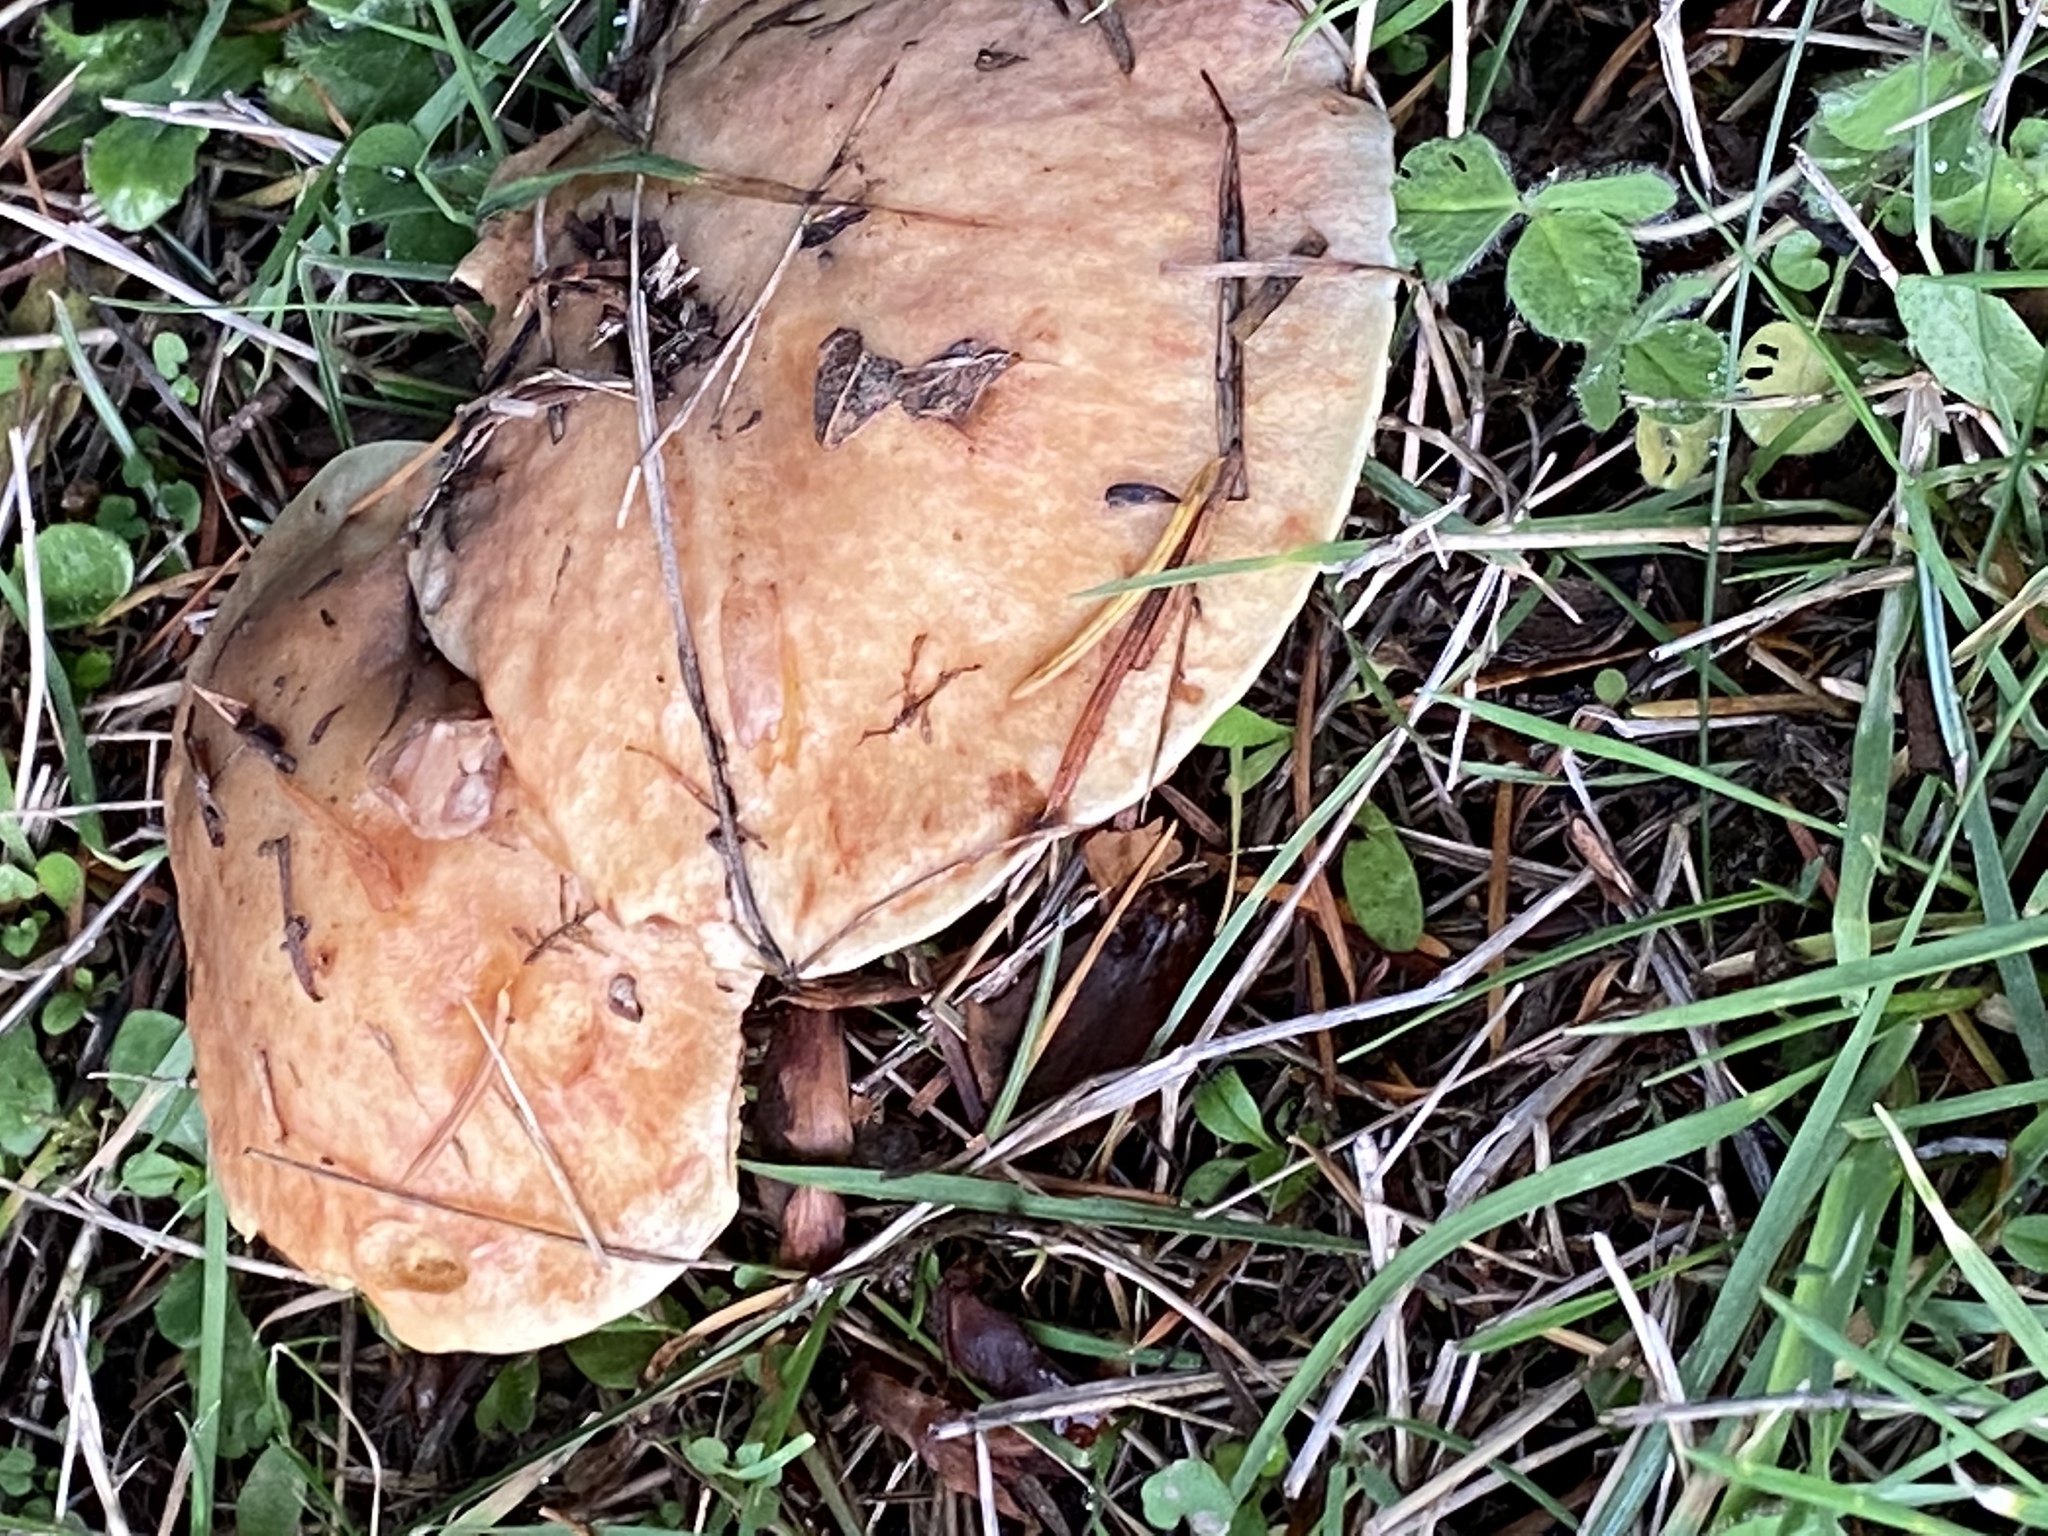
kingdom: Fungi
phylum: Basidiomycota
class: Agaricomycetes
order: Boletales
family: Suillaceae
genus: Suillus
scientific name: Suillus caerulescens
